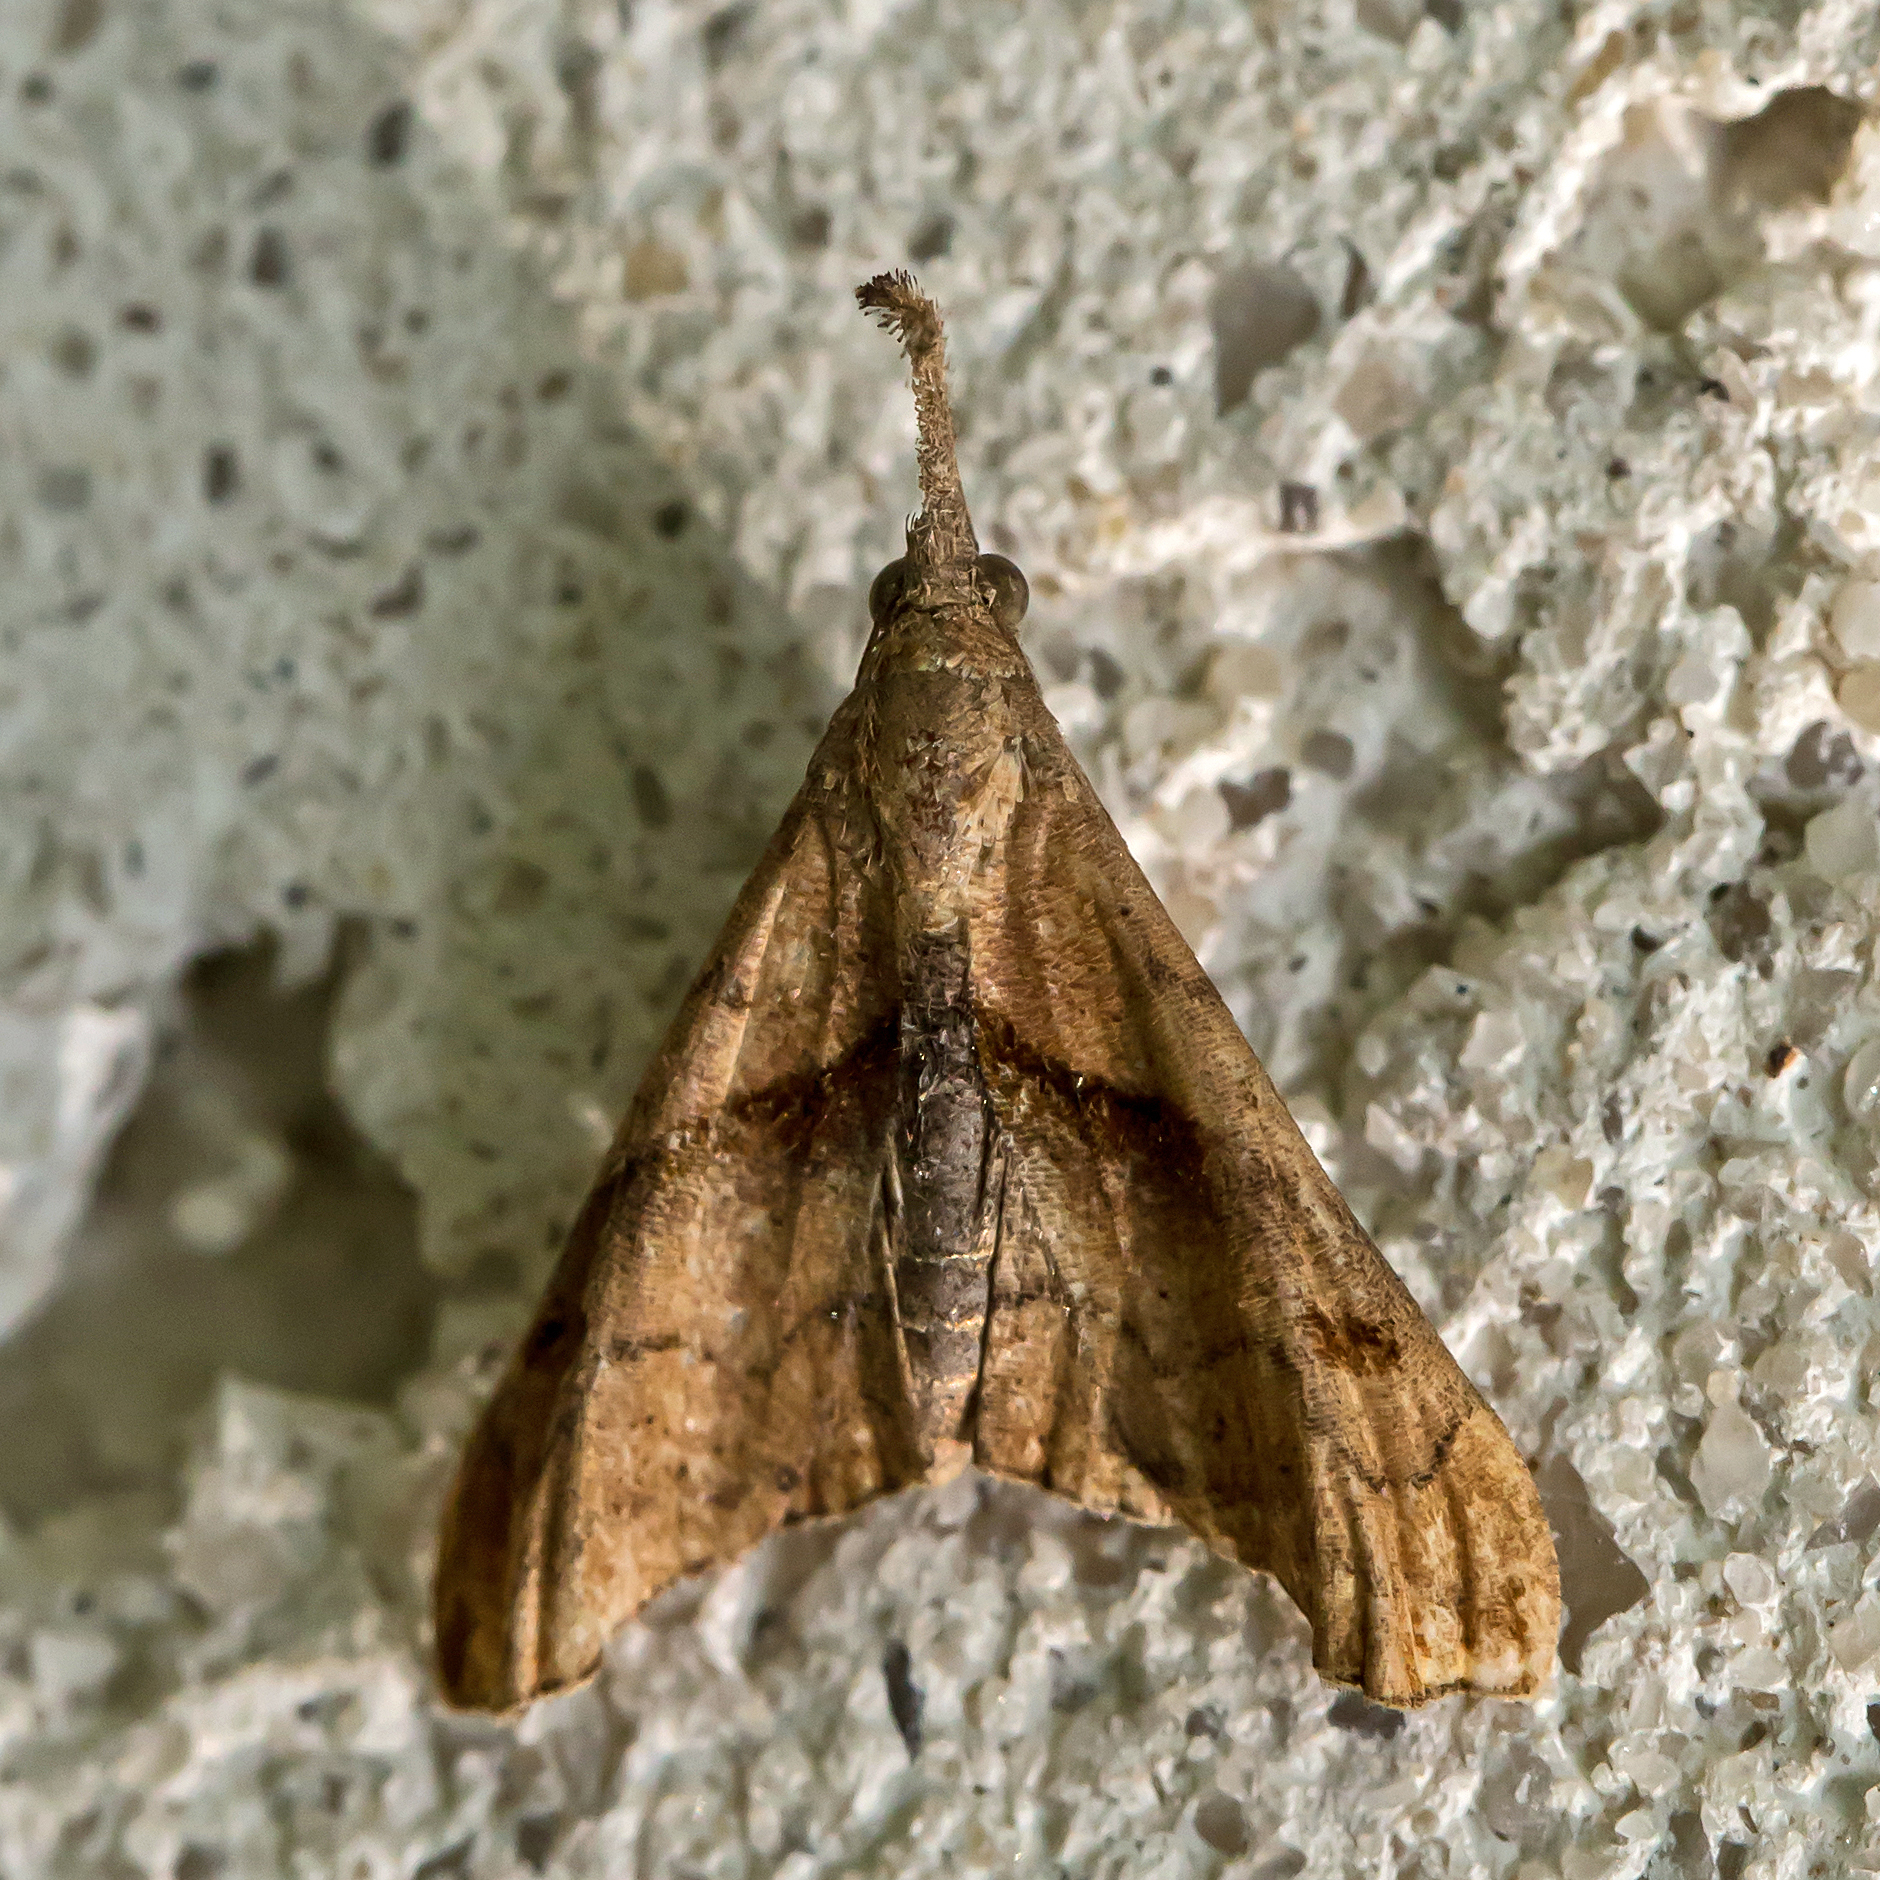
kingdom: Animalia
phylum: Arthropoda
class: Insecta
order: Lepidoptera
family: Erebidae
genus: Palthis
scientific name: Palthis angulalis
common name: Dark-spotted palthis moth
